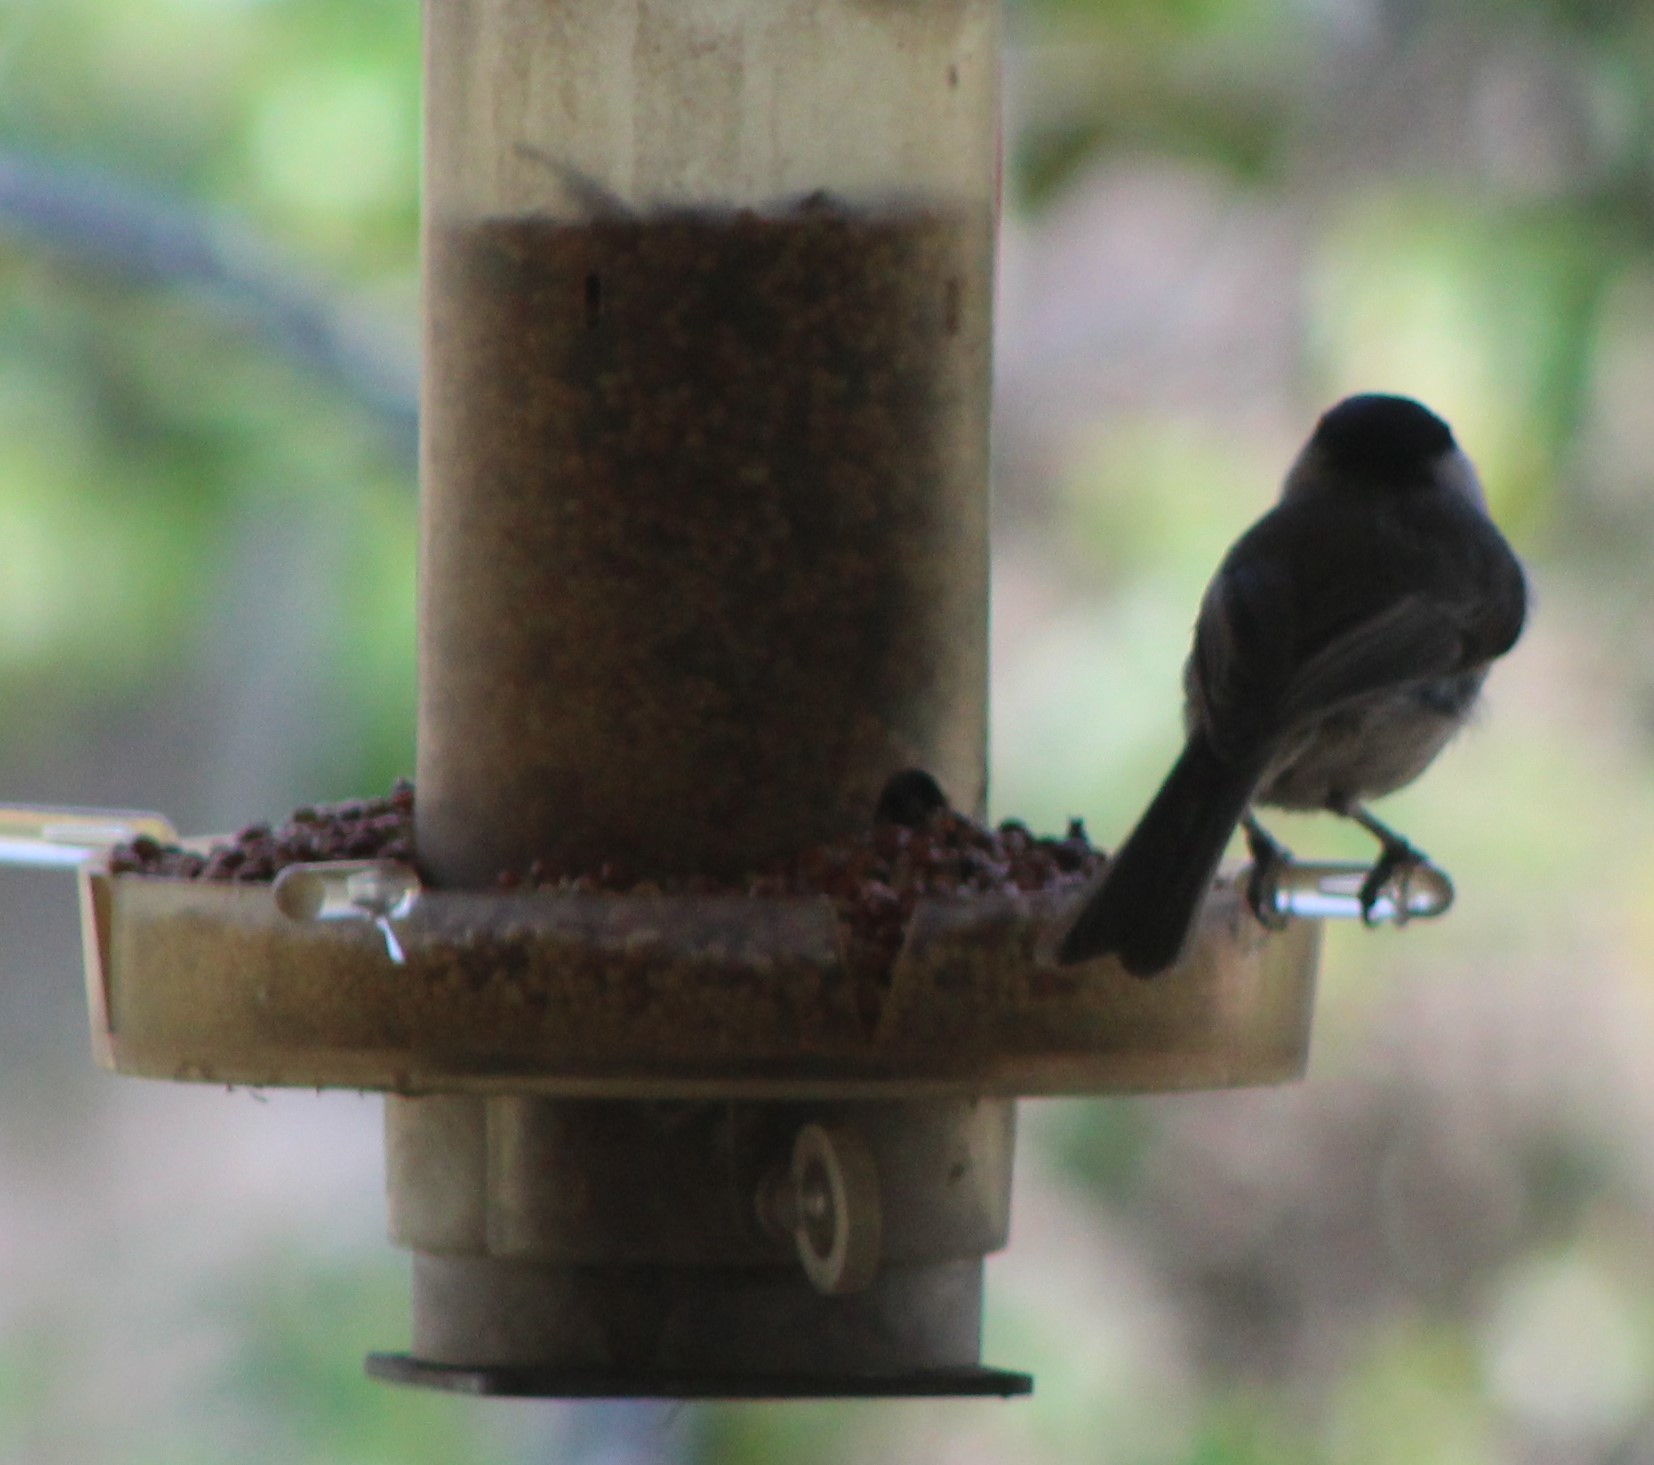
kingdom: Animalia
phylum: Chordata
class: Aves
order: Passeriformes
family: Paridae
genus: Poecile
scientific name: Poecile carolinensis
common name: Carolina chickadee
